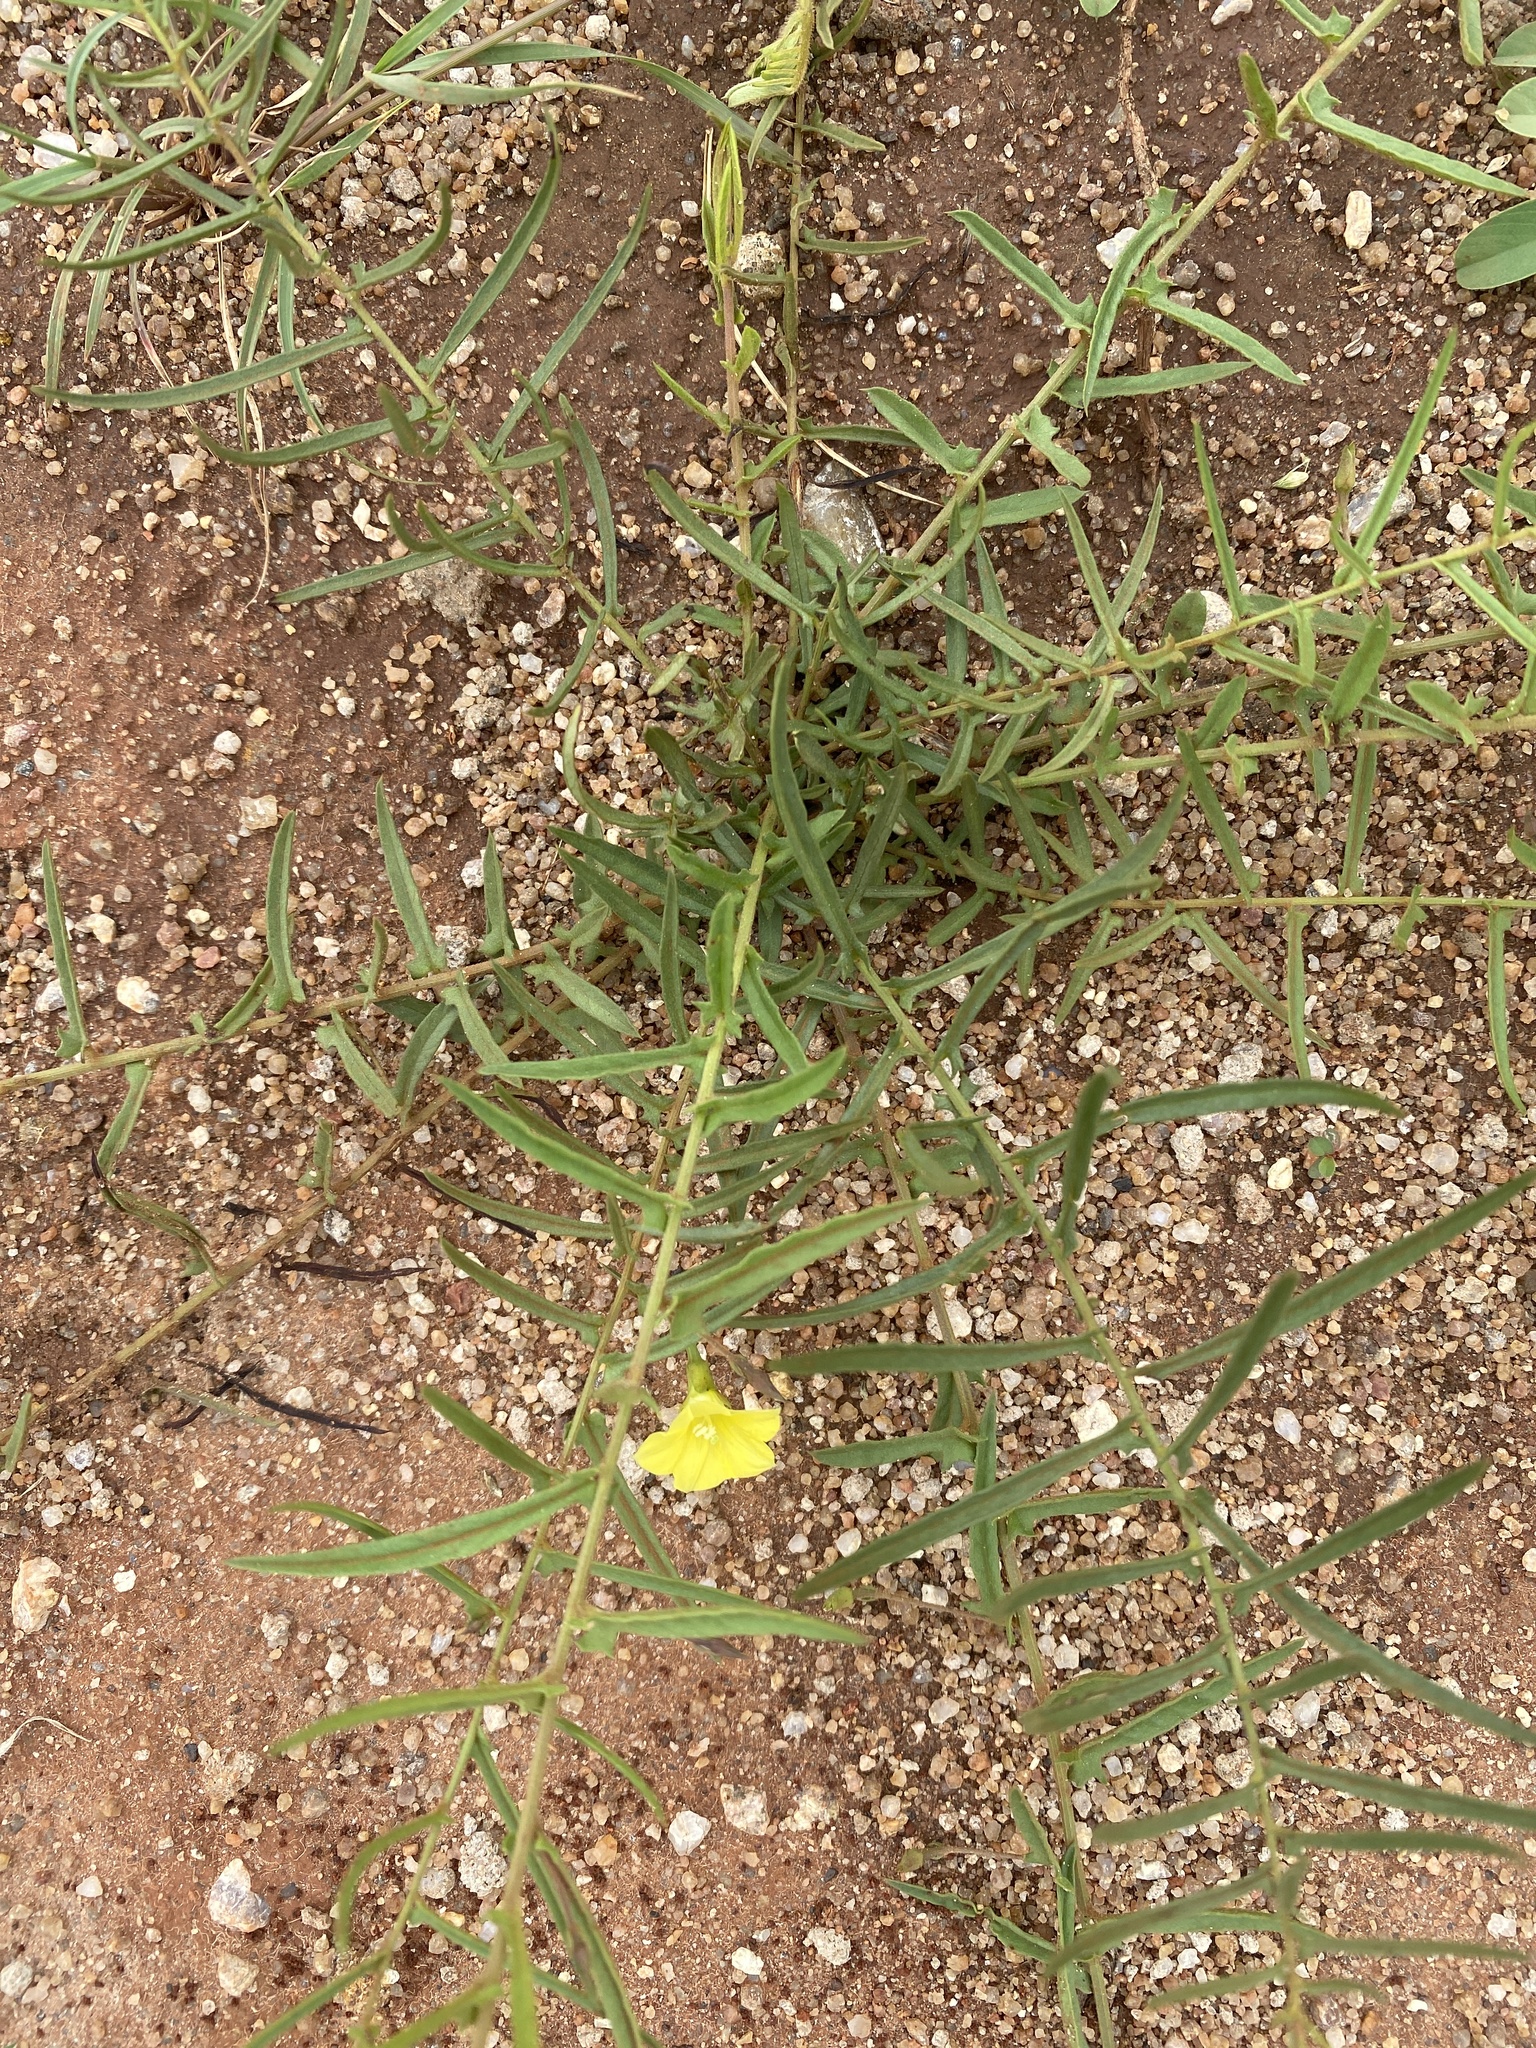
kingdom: Plantae
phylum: Tracheophyta
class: Magnoliopsida
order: Solanales
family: Convolvulaceae
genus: Xenostegia
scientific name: Xenostegia tridentata
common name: African morningvine
